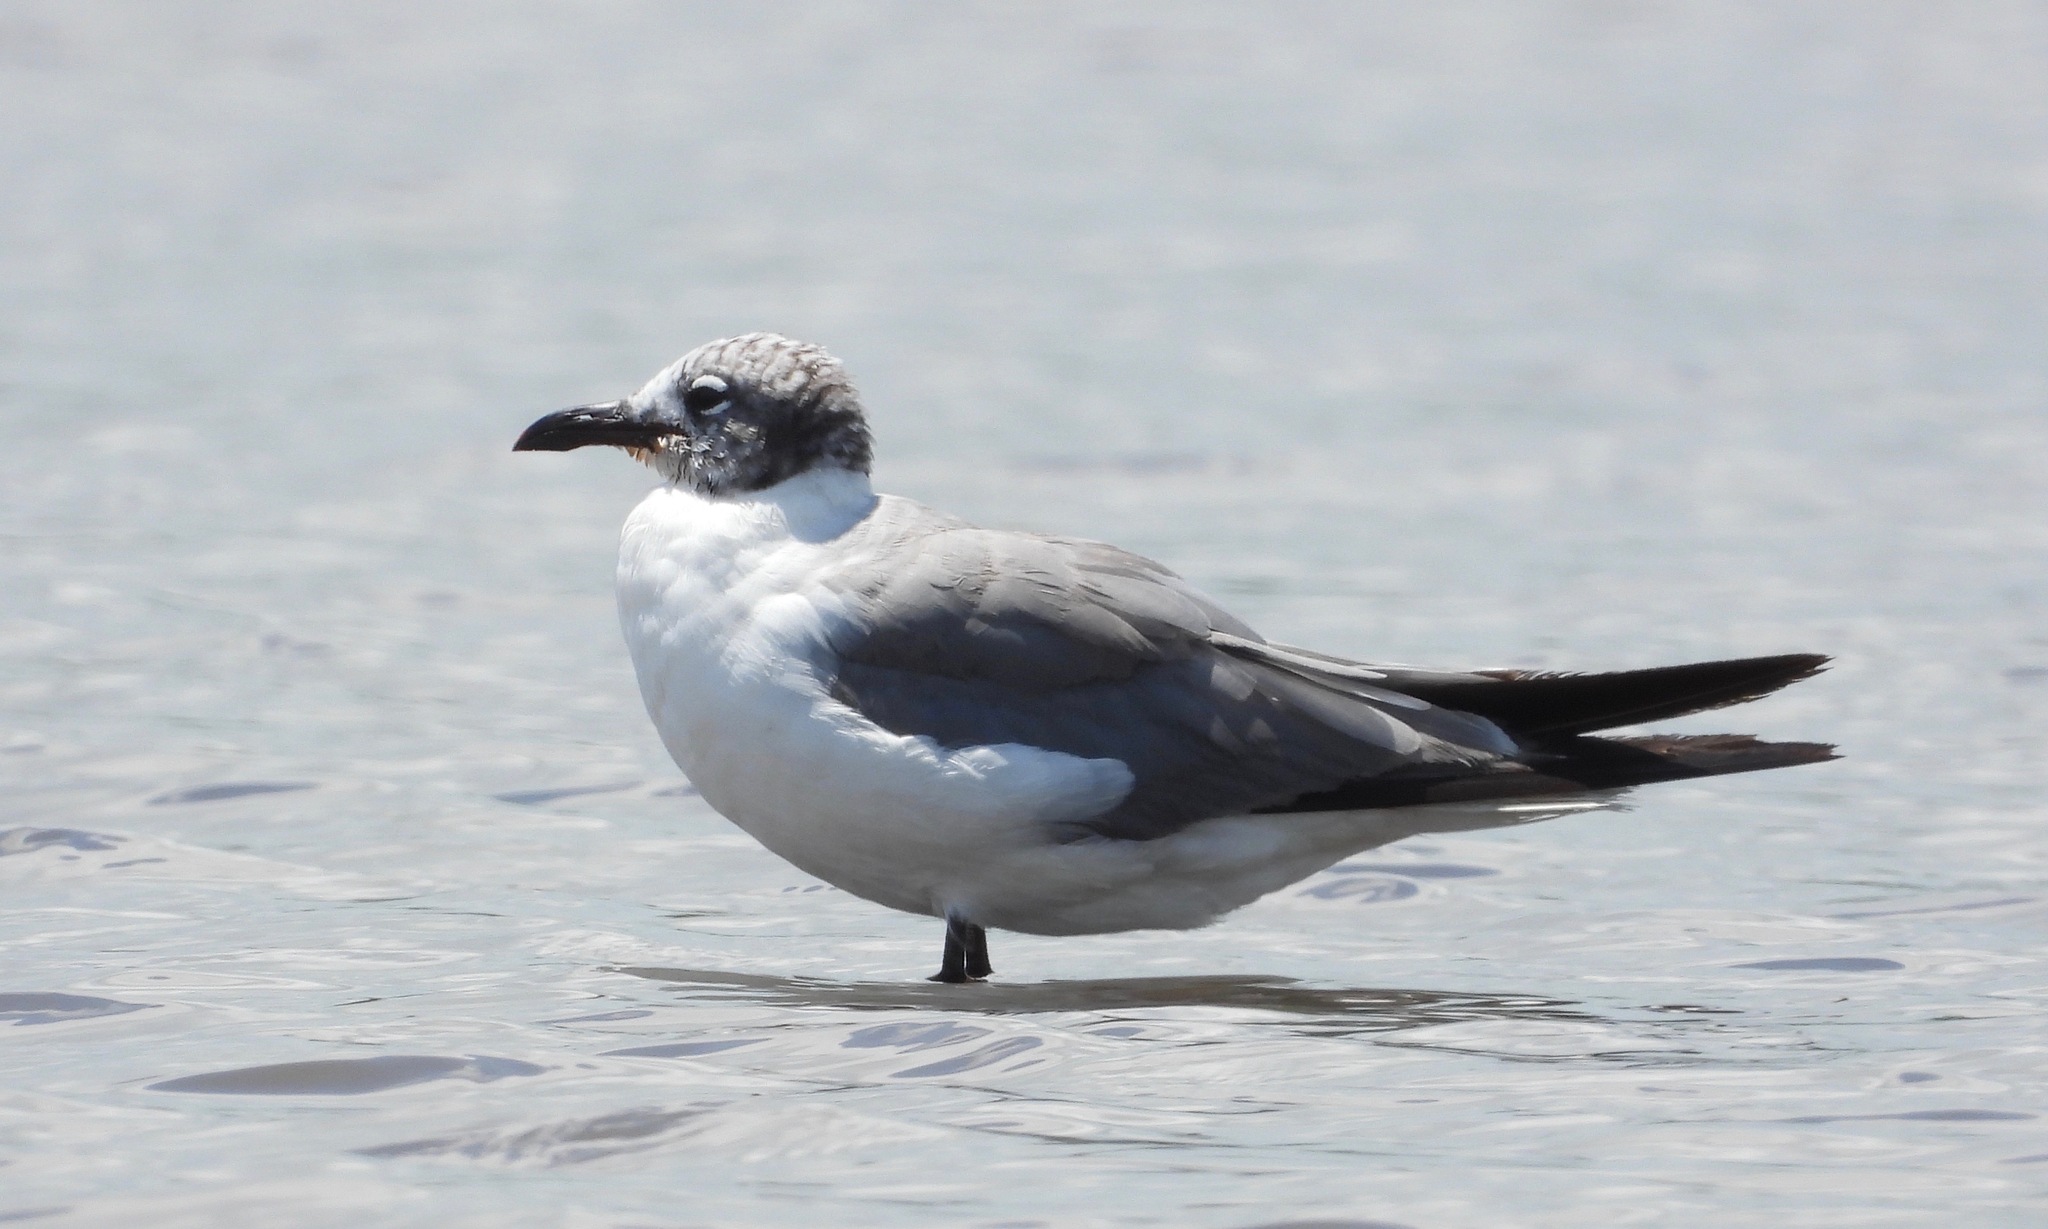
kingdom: Animalia
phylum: Chordata
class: Aves
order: Charadriiformes
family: Laridae
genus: Leucophaeus
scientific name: Leucophaeus atricilla
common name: Laughing gull
